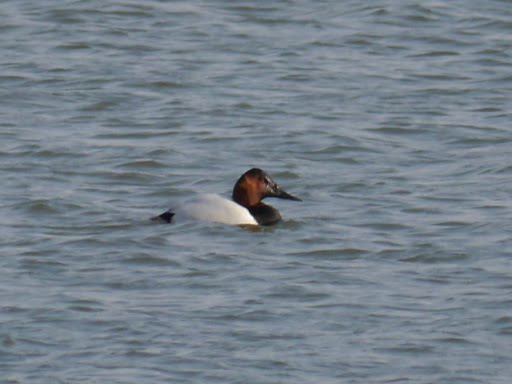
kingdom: Animalia
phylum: Chordata
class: Aves
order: Anseriformes
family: Anatidae
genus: Aythya
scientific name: Aythya valisineria
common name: Canvasback
